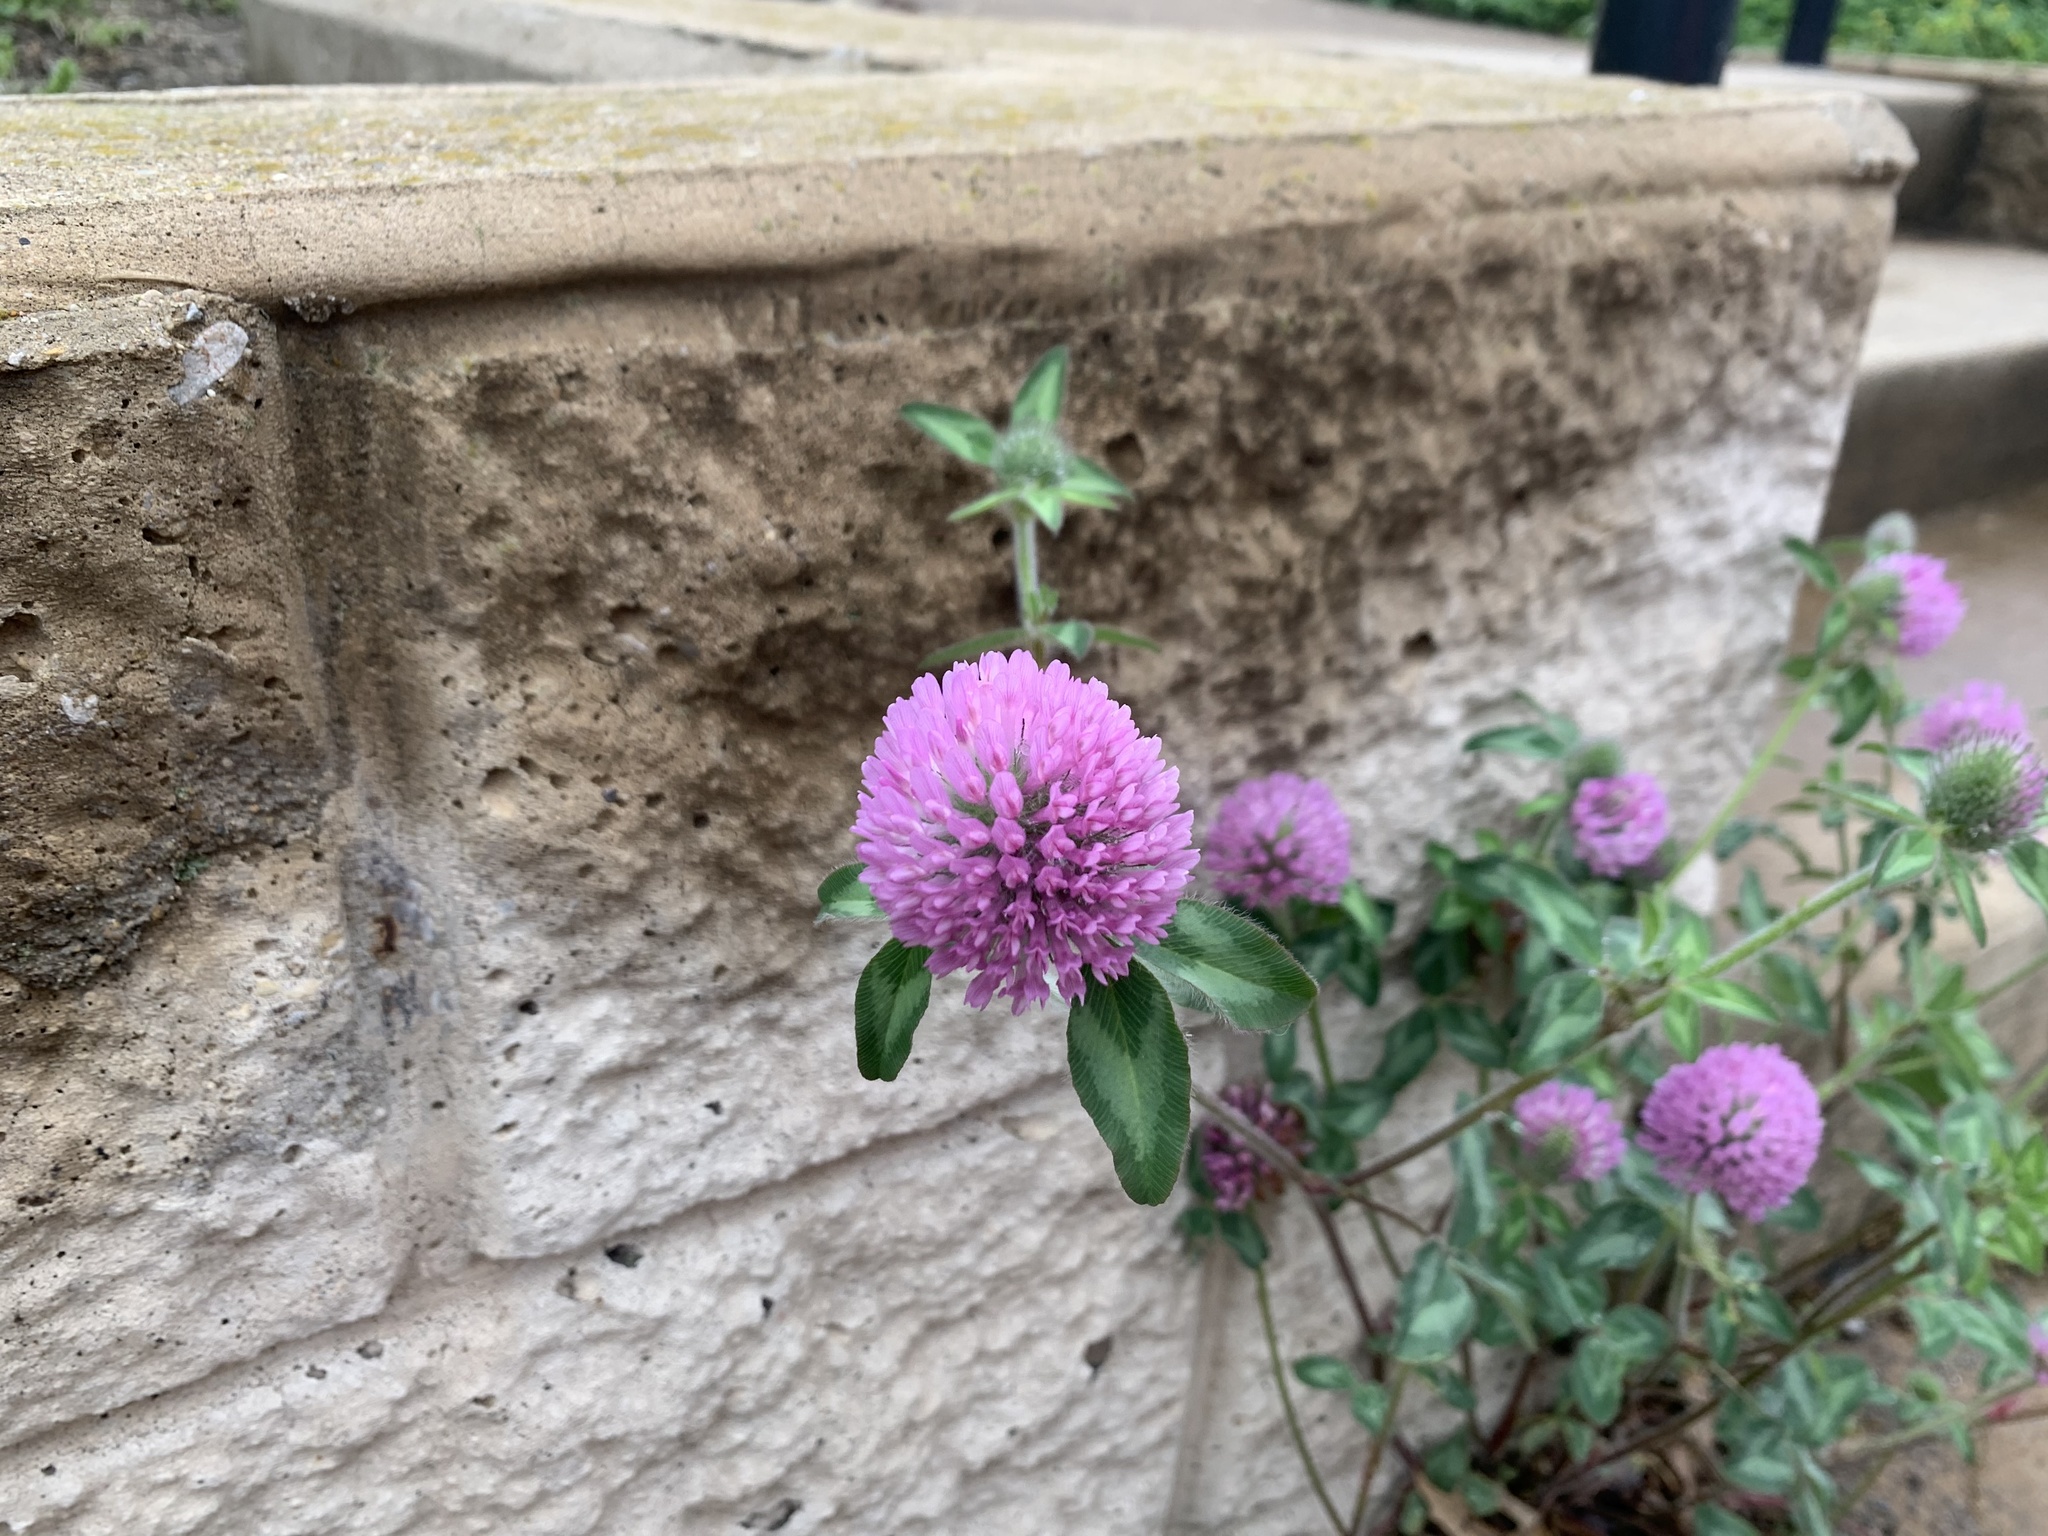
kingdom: Plantae
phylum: Tracheophyta
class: Magnoliopsida
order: Fabales
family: Fabaceae
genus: Trifolium
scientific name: Trifolium pratense
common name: Red clover
